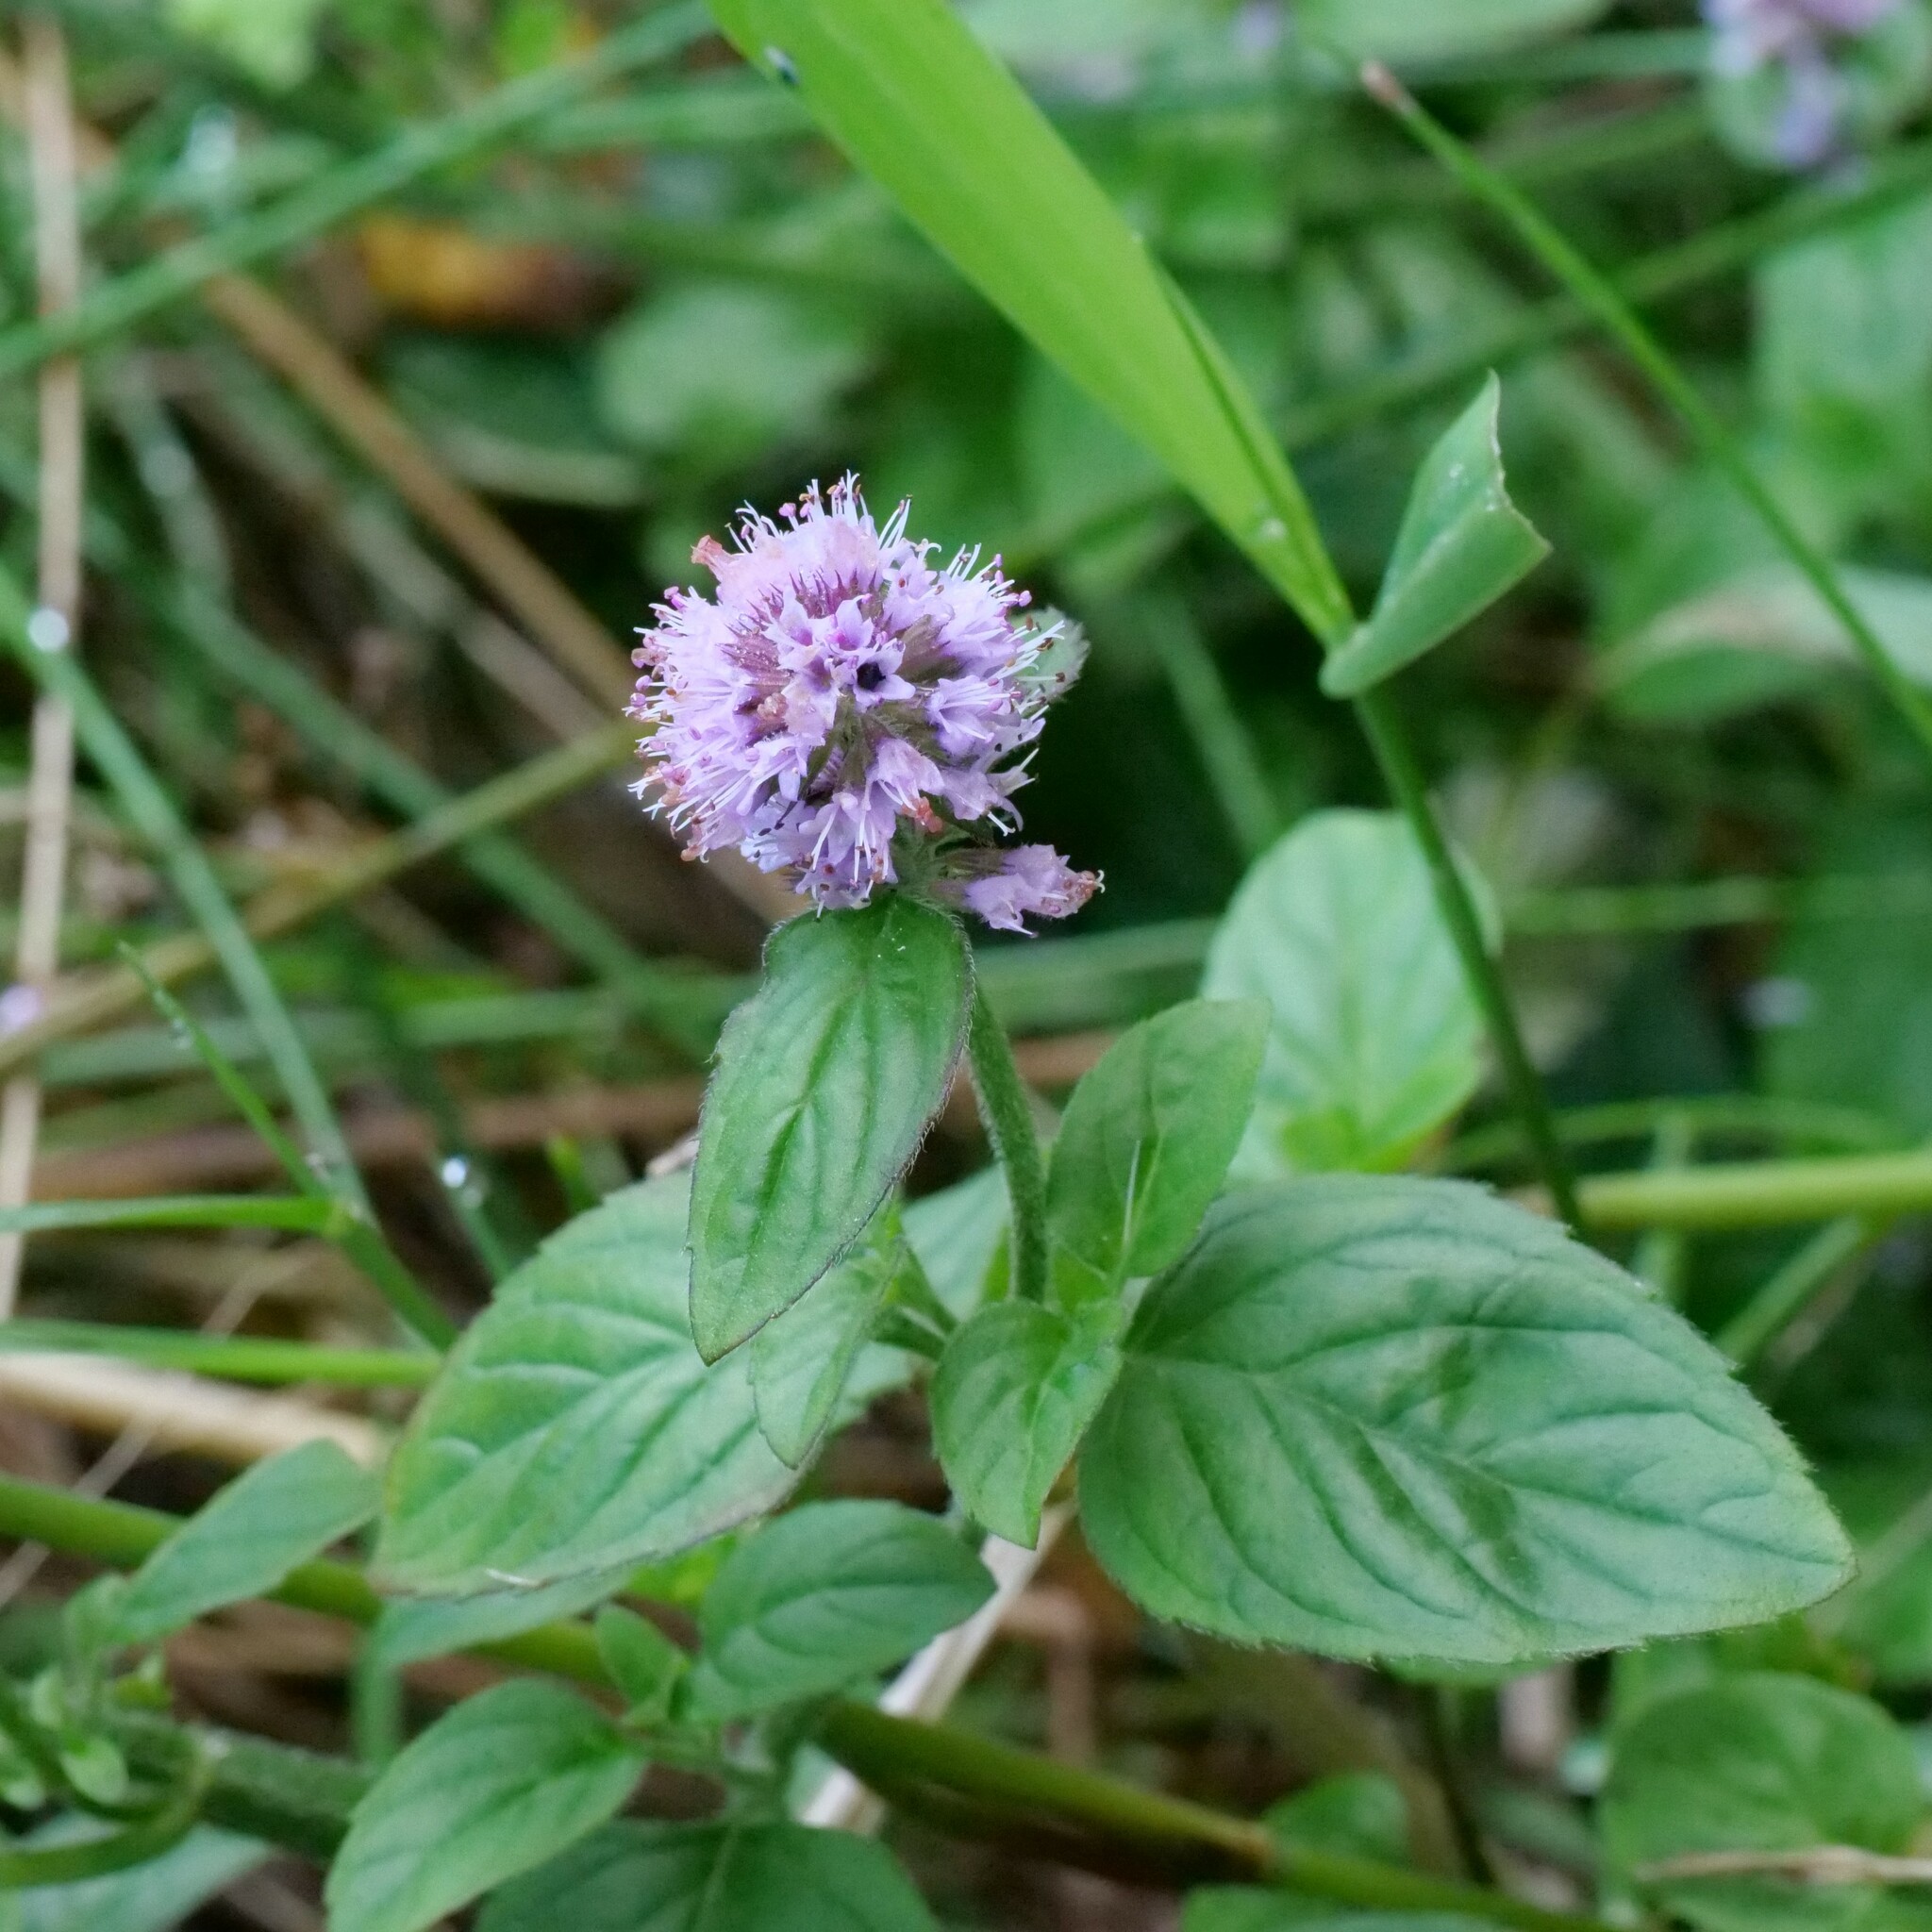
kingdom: Plantae
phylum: Tracheophyta
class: Magnoliopsida
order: Lamiales
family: Lamiaceae
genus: Mentha
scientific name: Mentha aquatica
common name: Water mint
